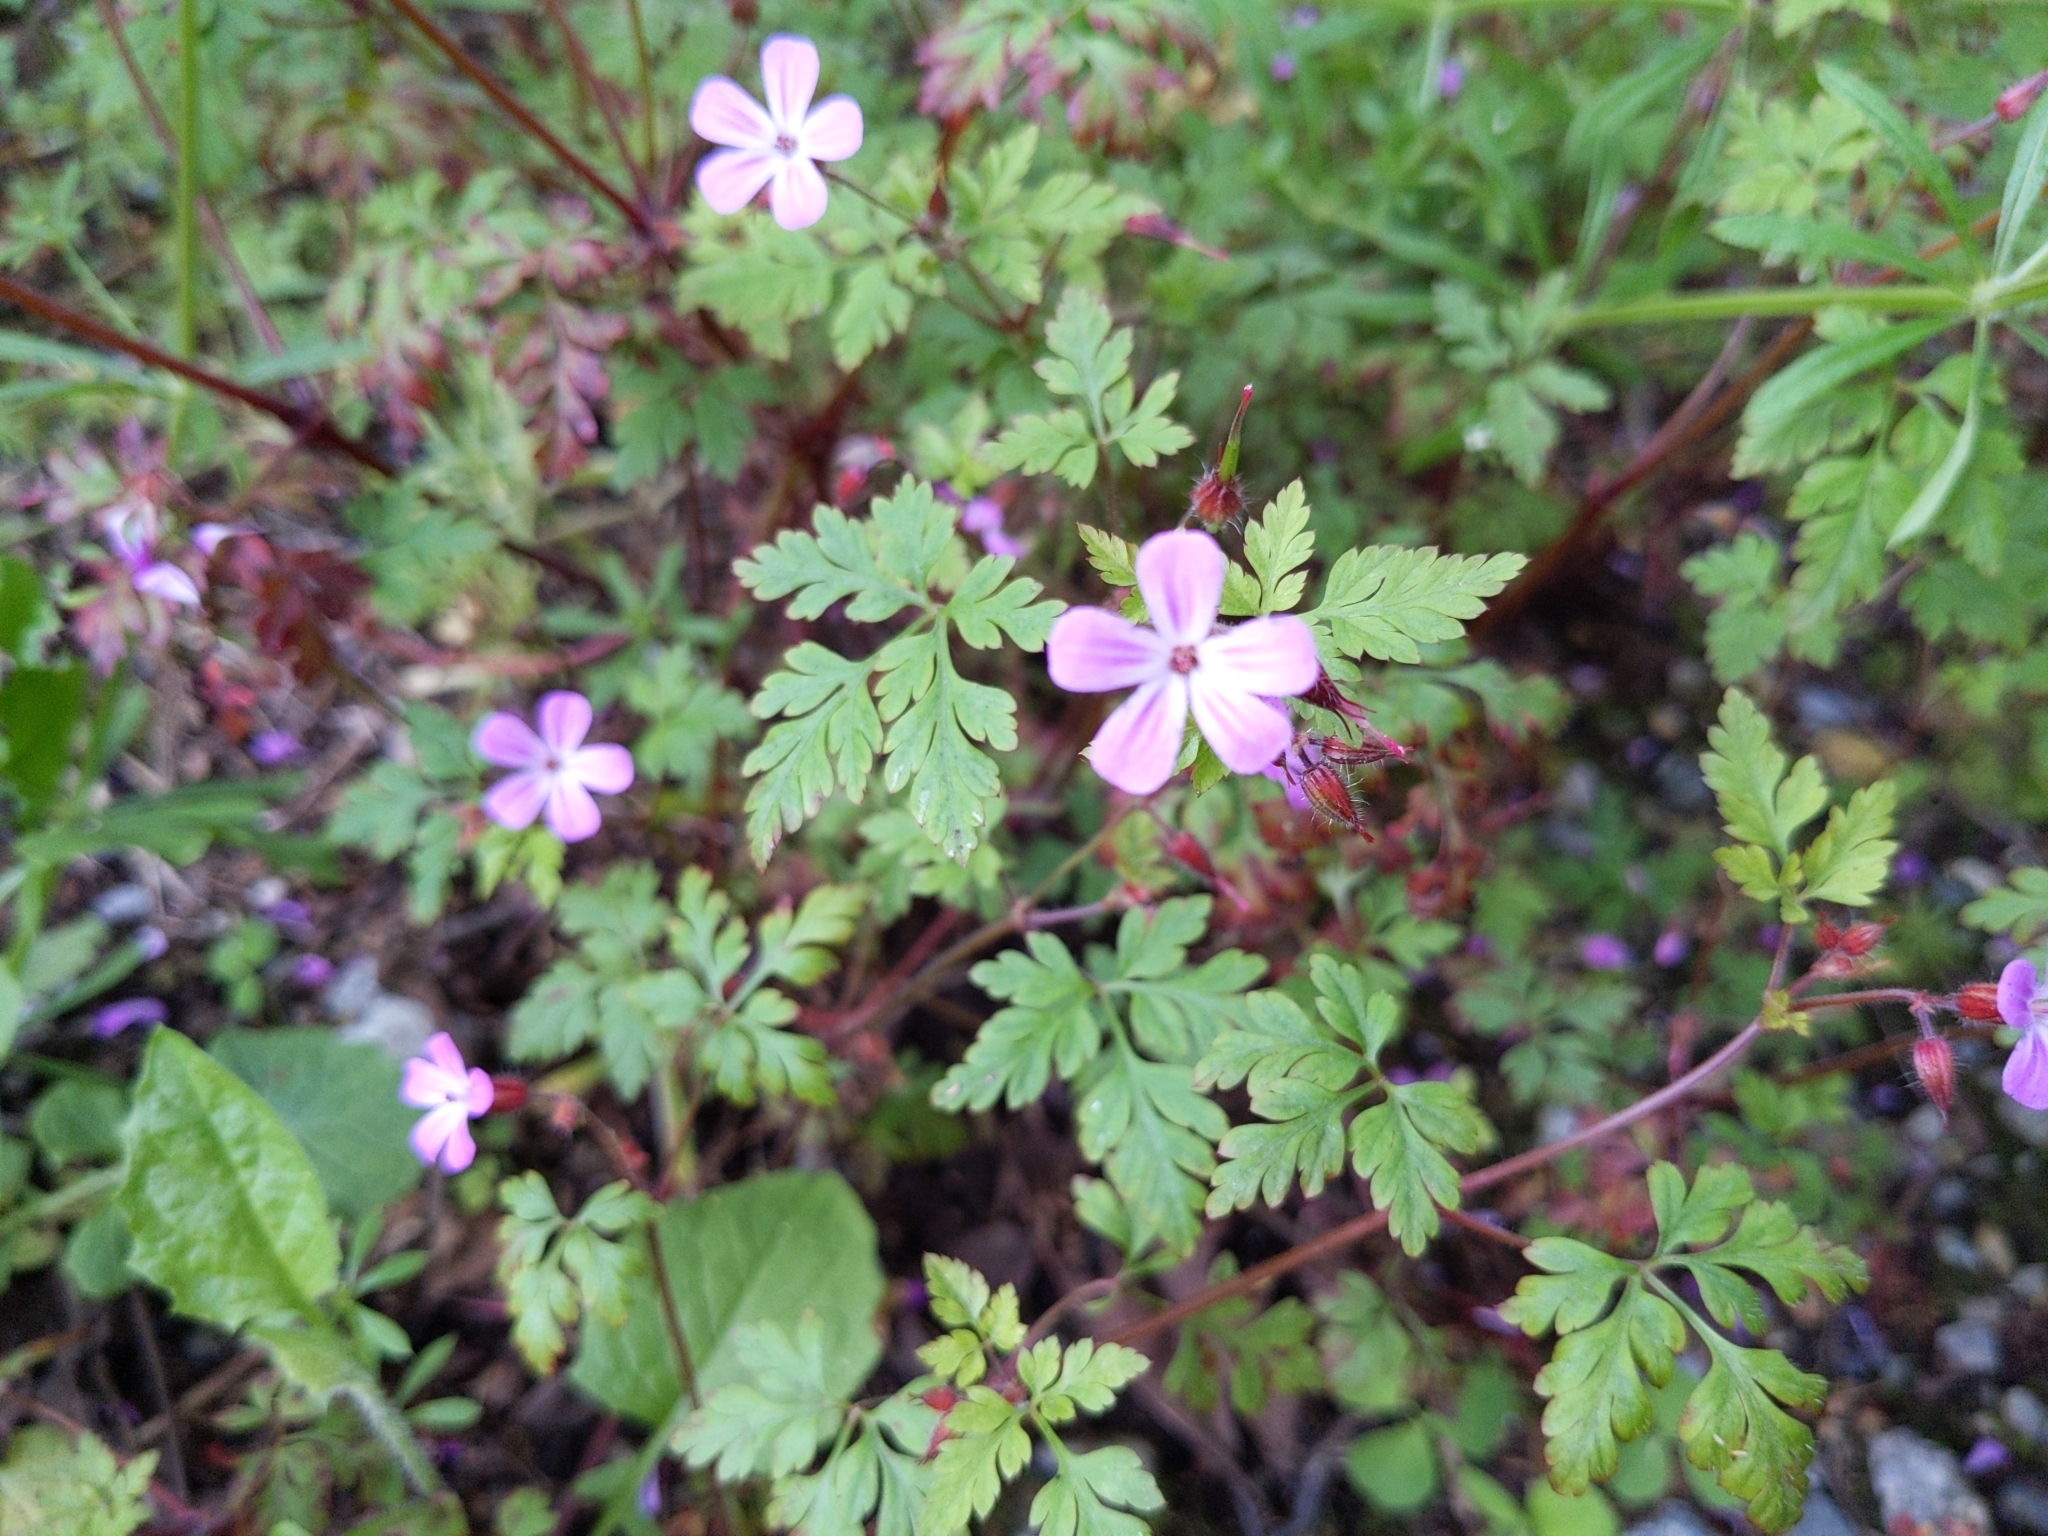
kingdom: Plantae
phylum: Tracheophyta
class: Magnoliopsida
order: Geraniales
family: Geraniaceae
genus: Geranium
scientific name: Geranium robertianum
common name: Herb-robert
